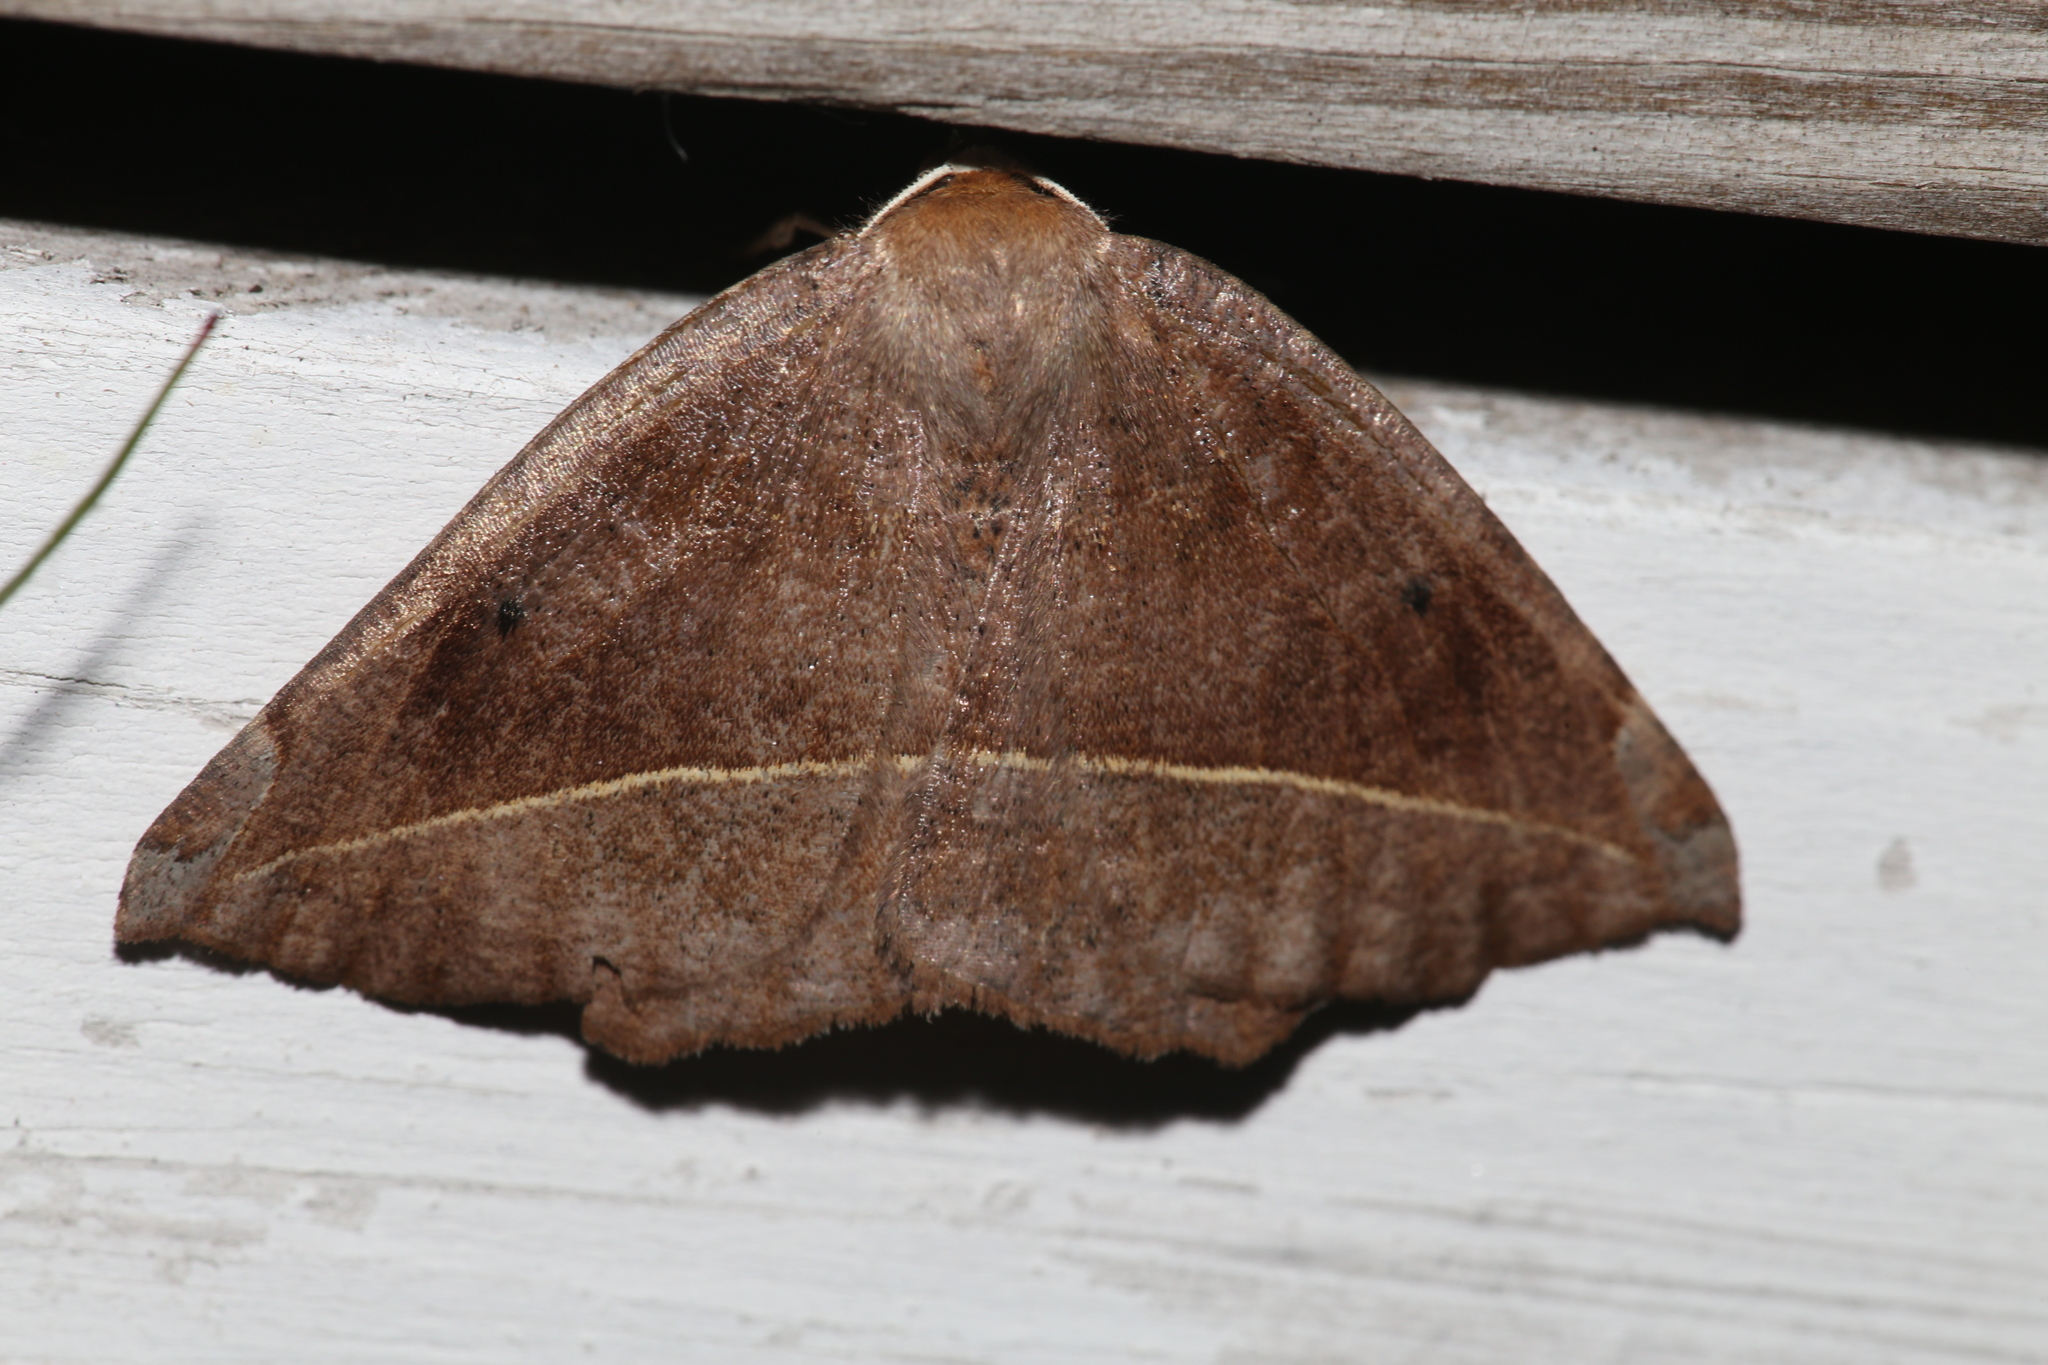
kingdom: Animalia
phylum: Arthropoda
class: Insecta
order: Lepidoptera
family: Geometridae
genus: Eutrapela
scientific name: Eutrapela clemataria
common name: Curved-toothed geometer
